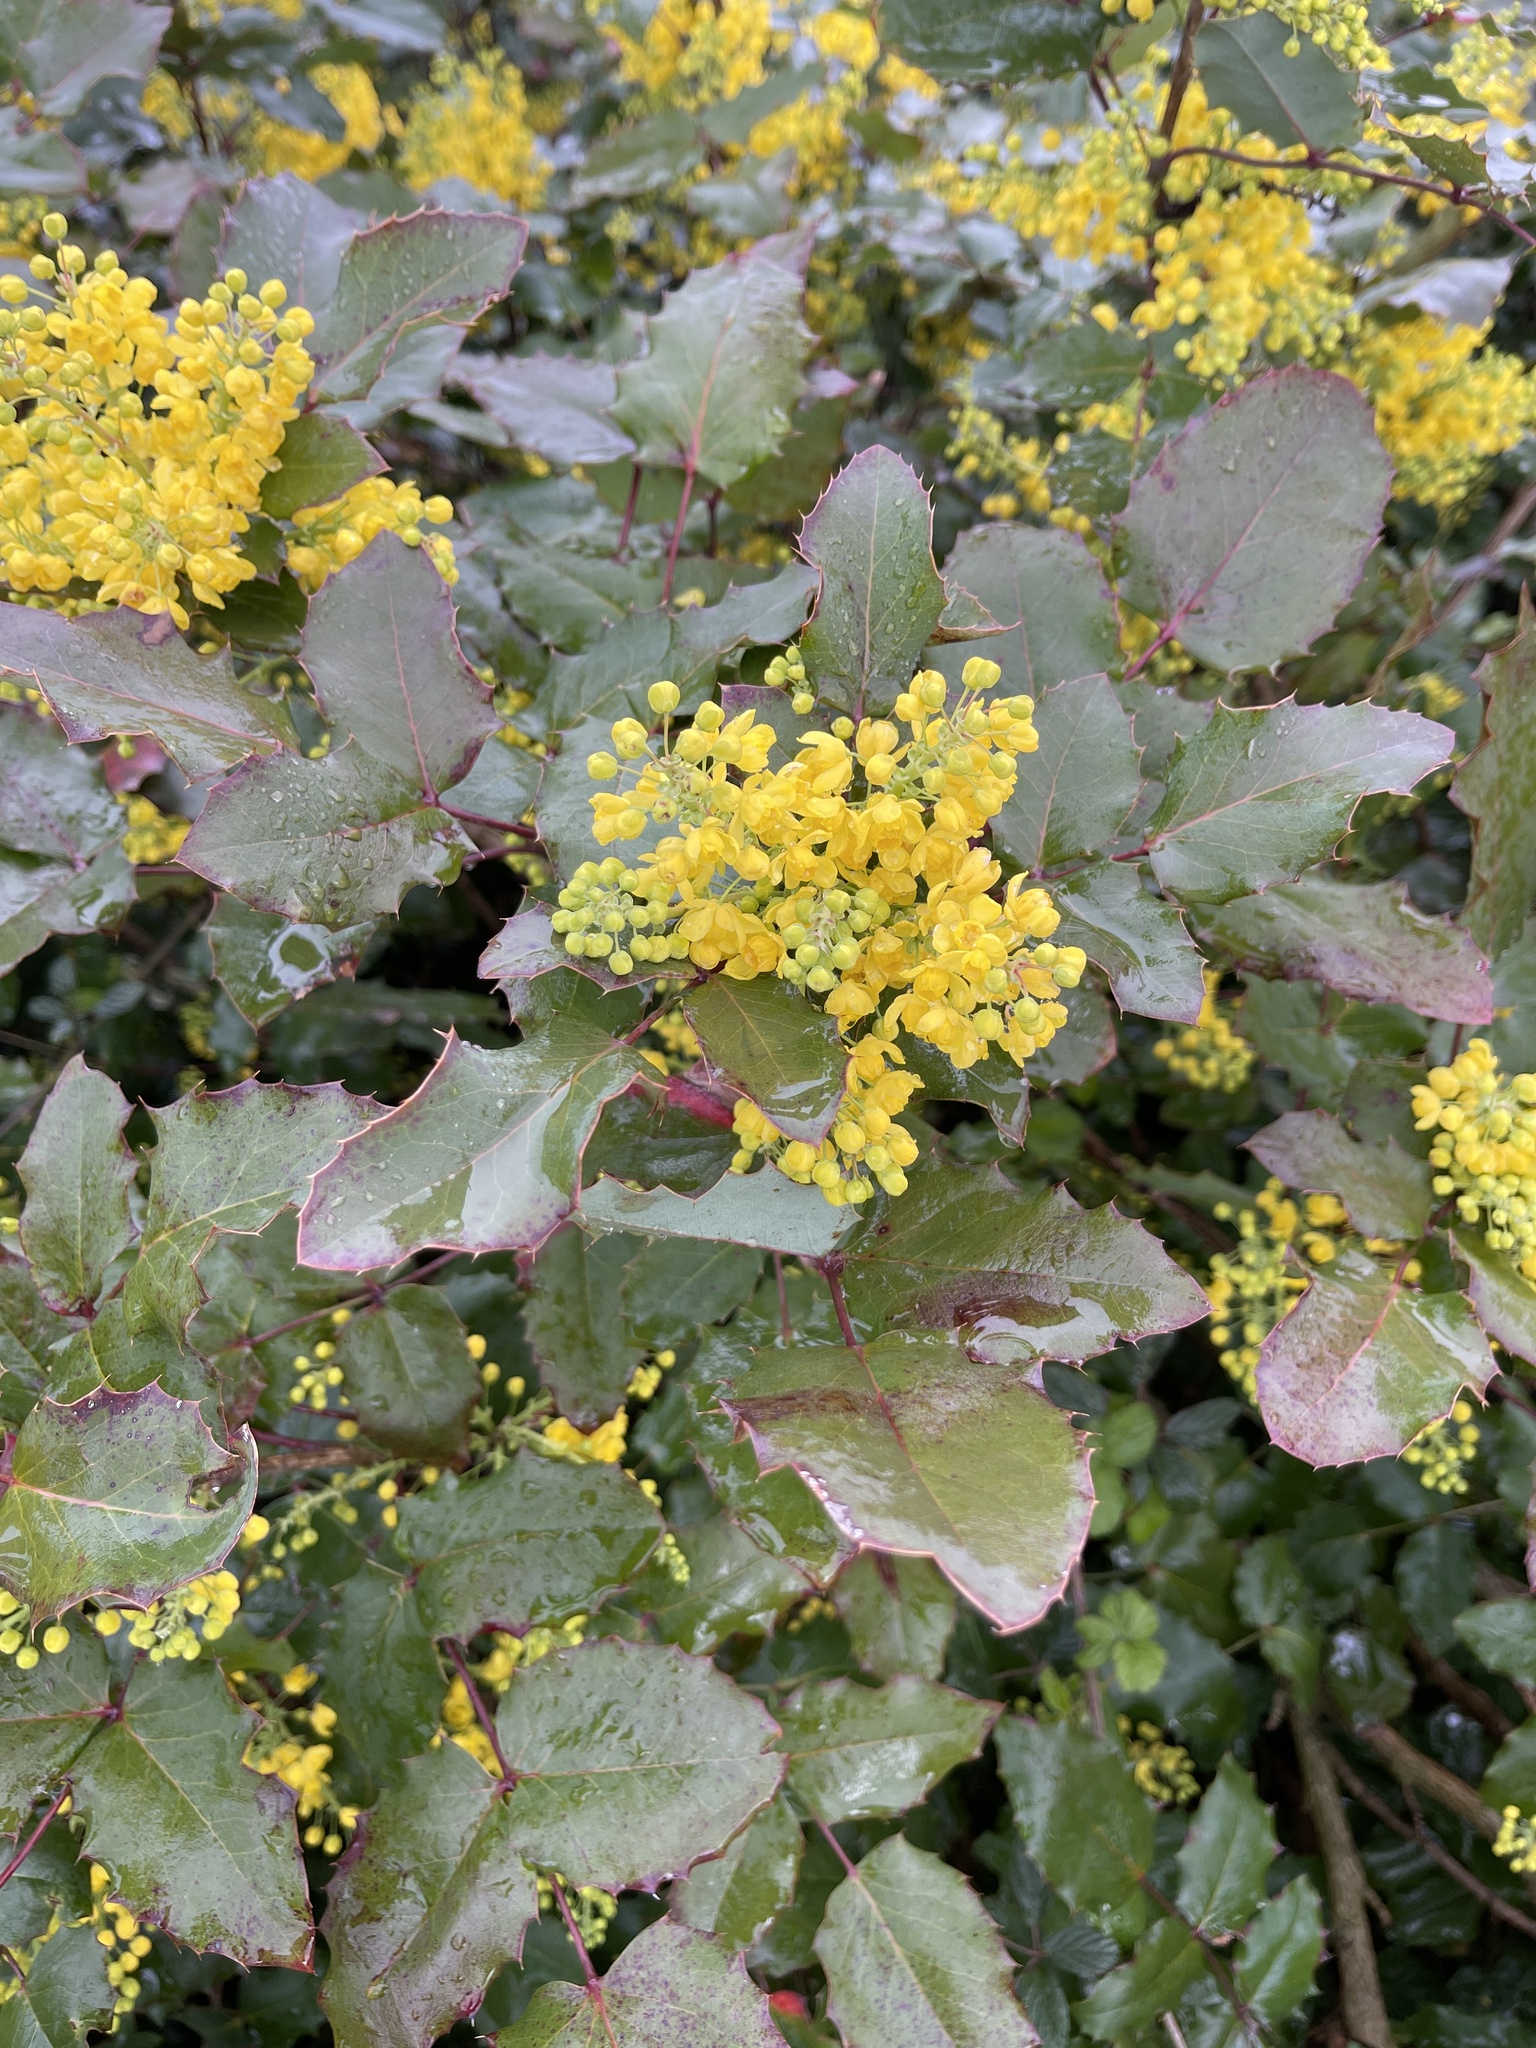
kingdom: Plantae
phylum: Tracheophyta
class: Magnoliopsida
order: Ranunculales
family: Berberidaceae
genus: Mahonia
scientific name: Mahonia aquifolium
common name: Oregon-grape
